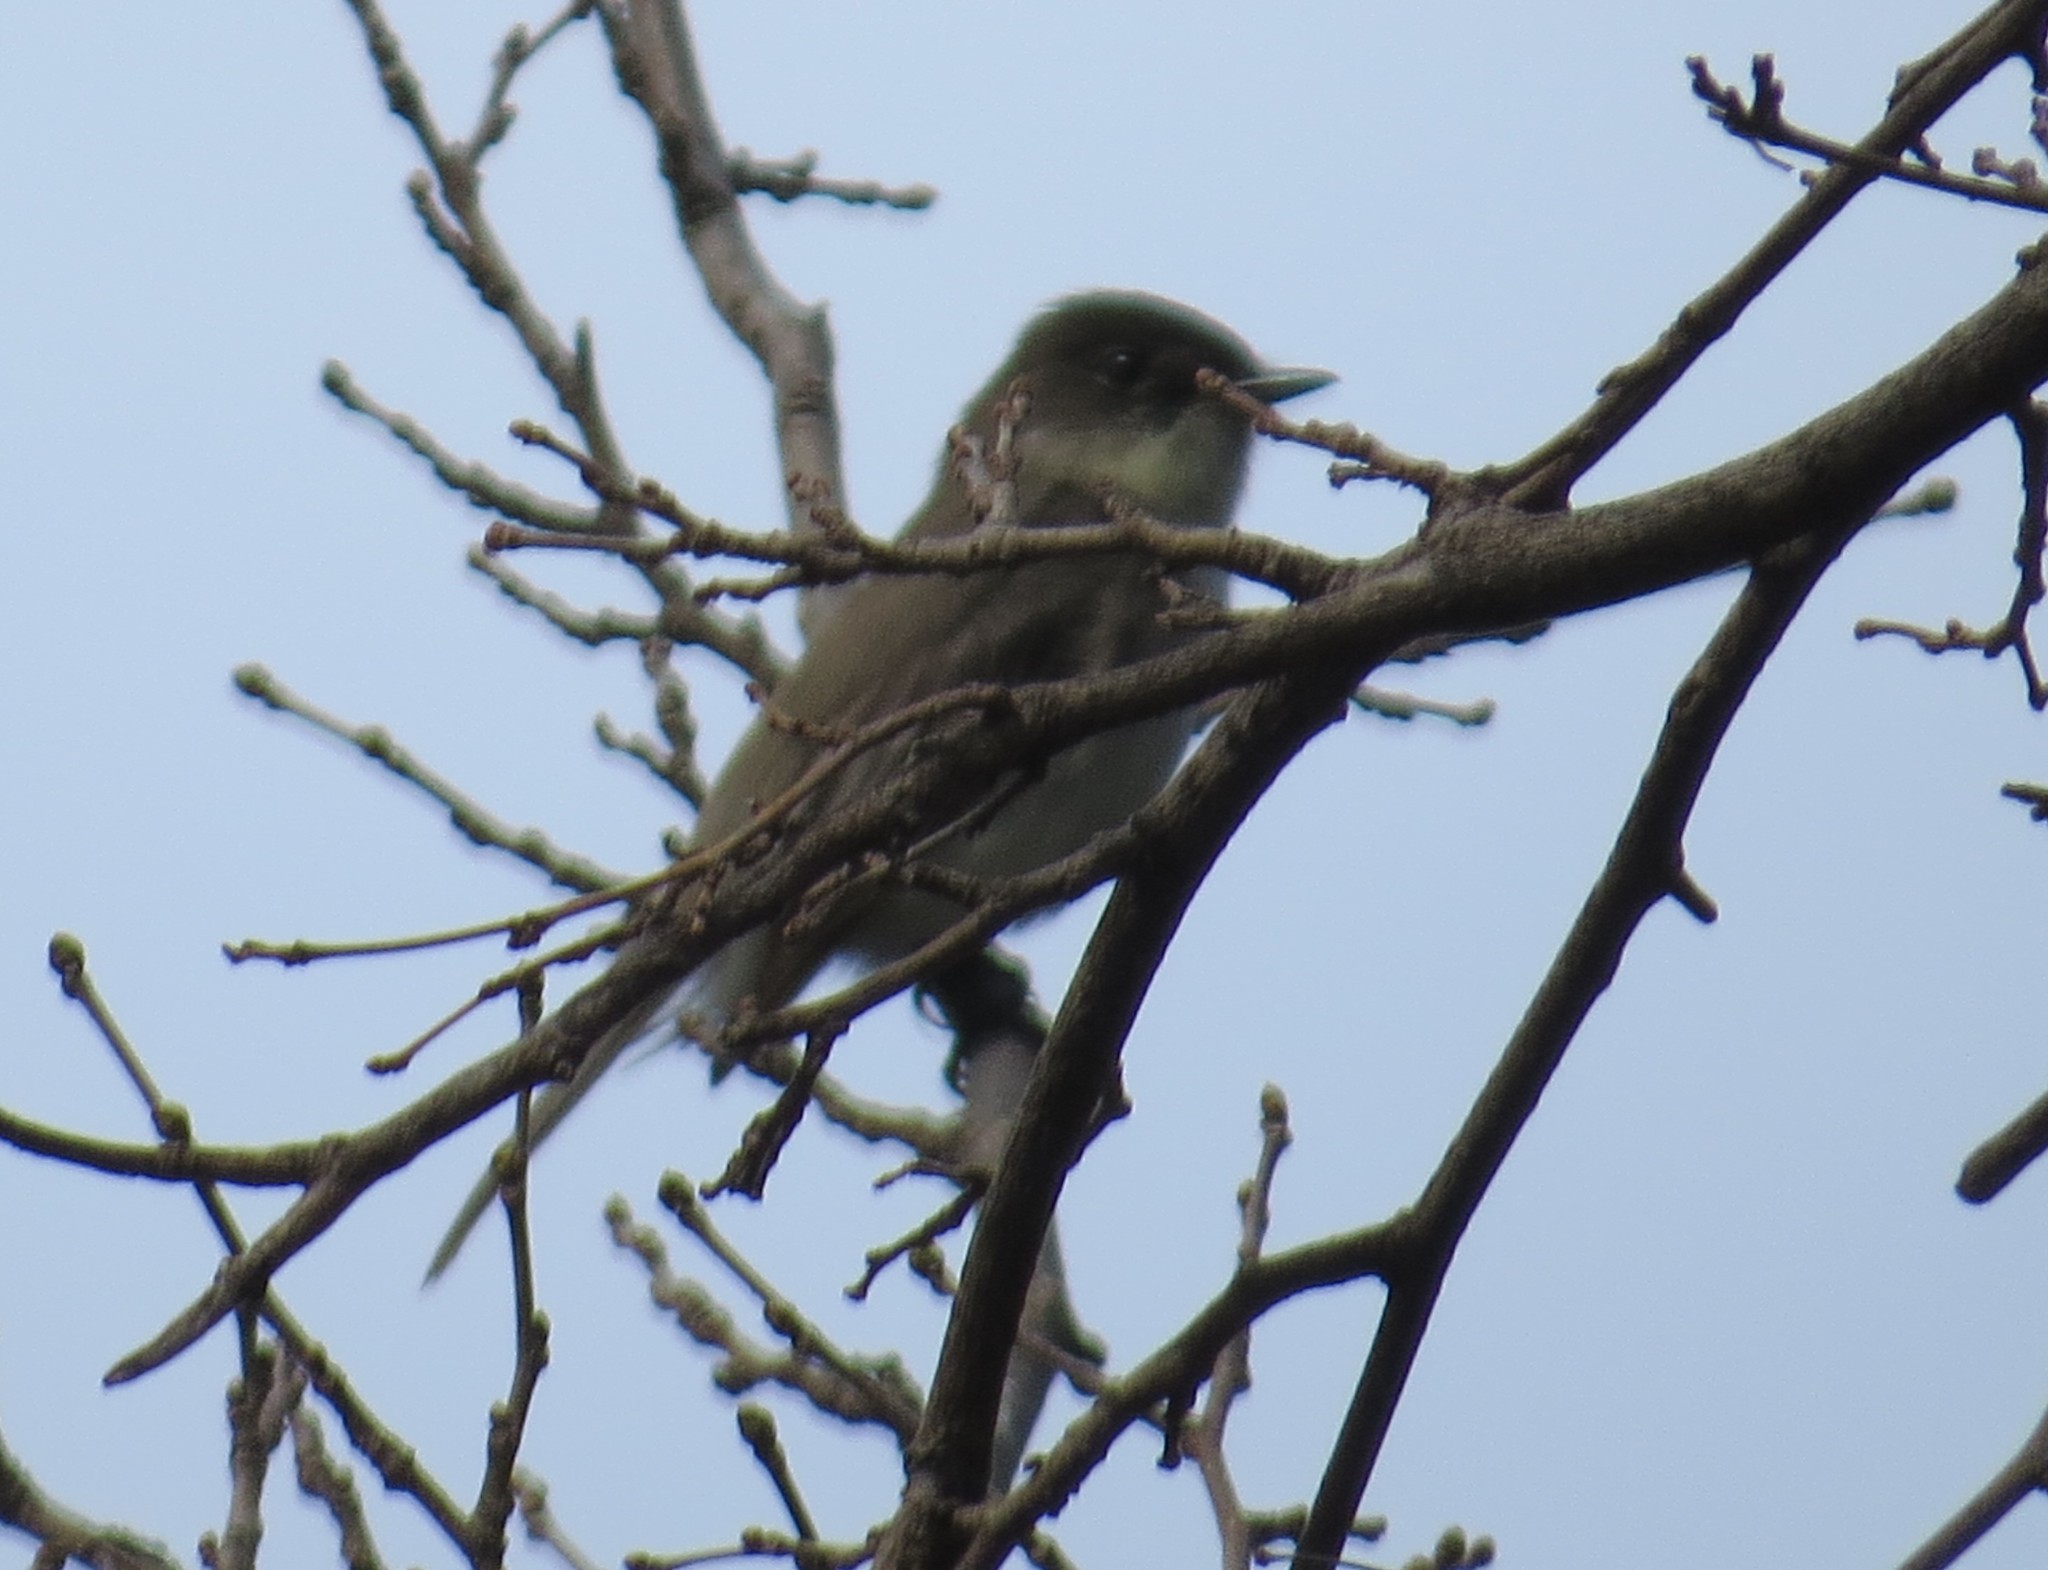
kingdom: Animalia
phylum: Chordata
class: Aves
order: Passeriformes
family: Tyrannidae
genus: Sayornis
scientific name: Sayornis phoebe
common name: Eastern phoebe
